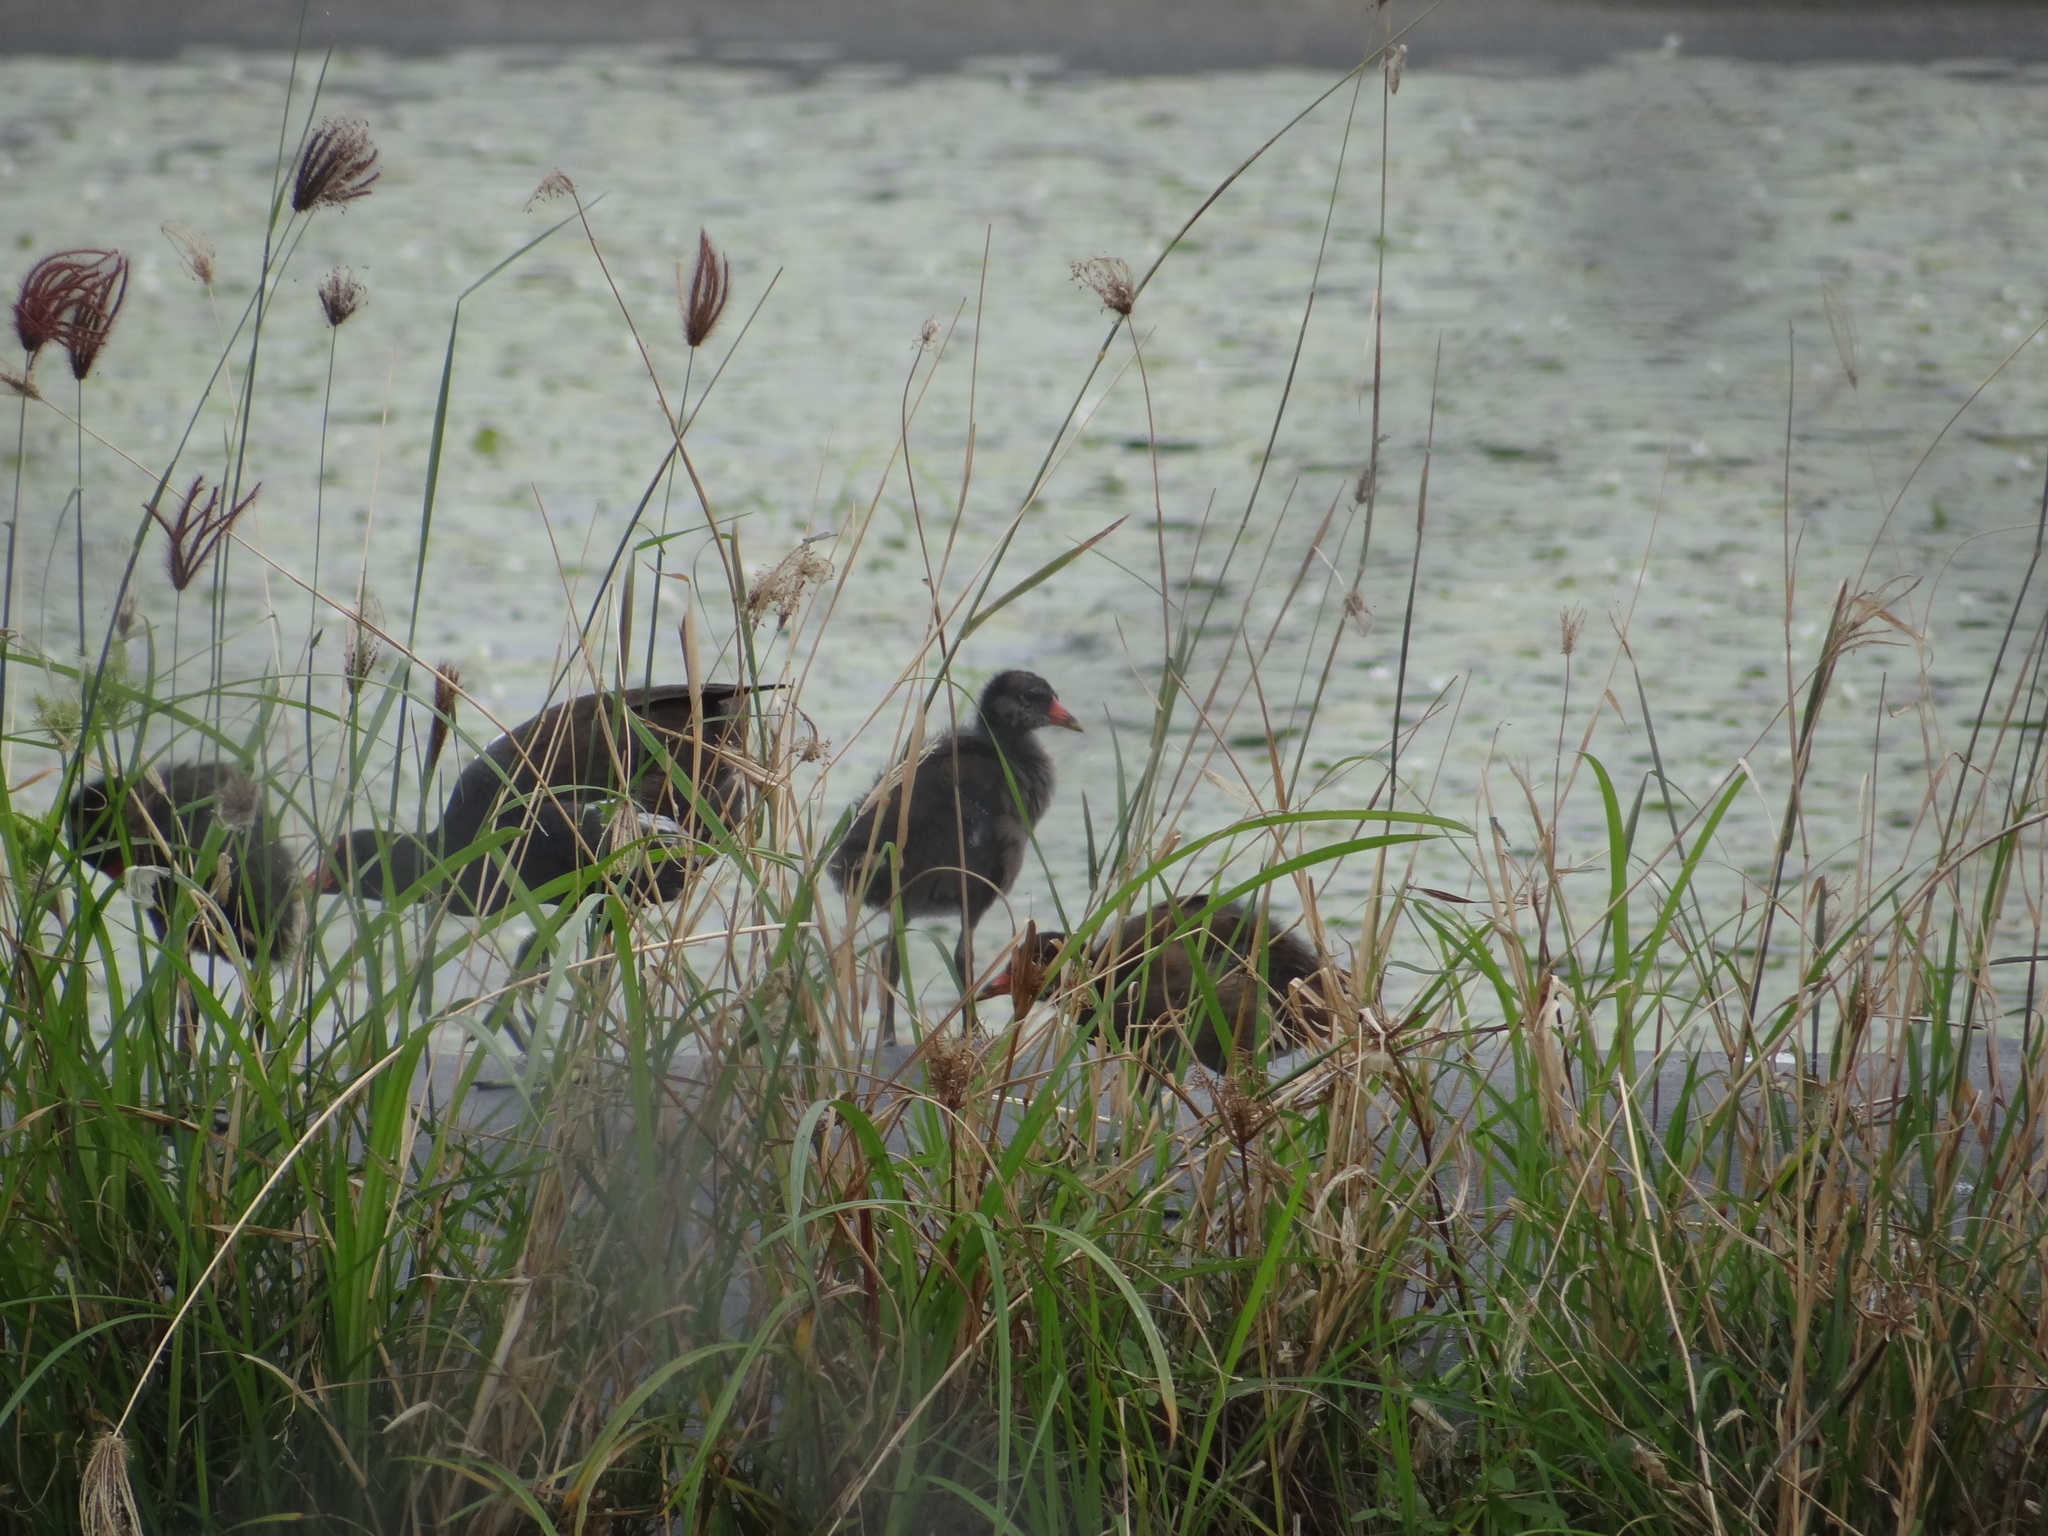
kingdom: Animalia
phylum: Chordata
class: Aves
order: Gruiformes
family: Rallidae
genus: Gallinula
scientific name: Gallinula chloropus
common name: Common moorhen
